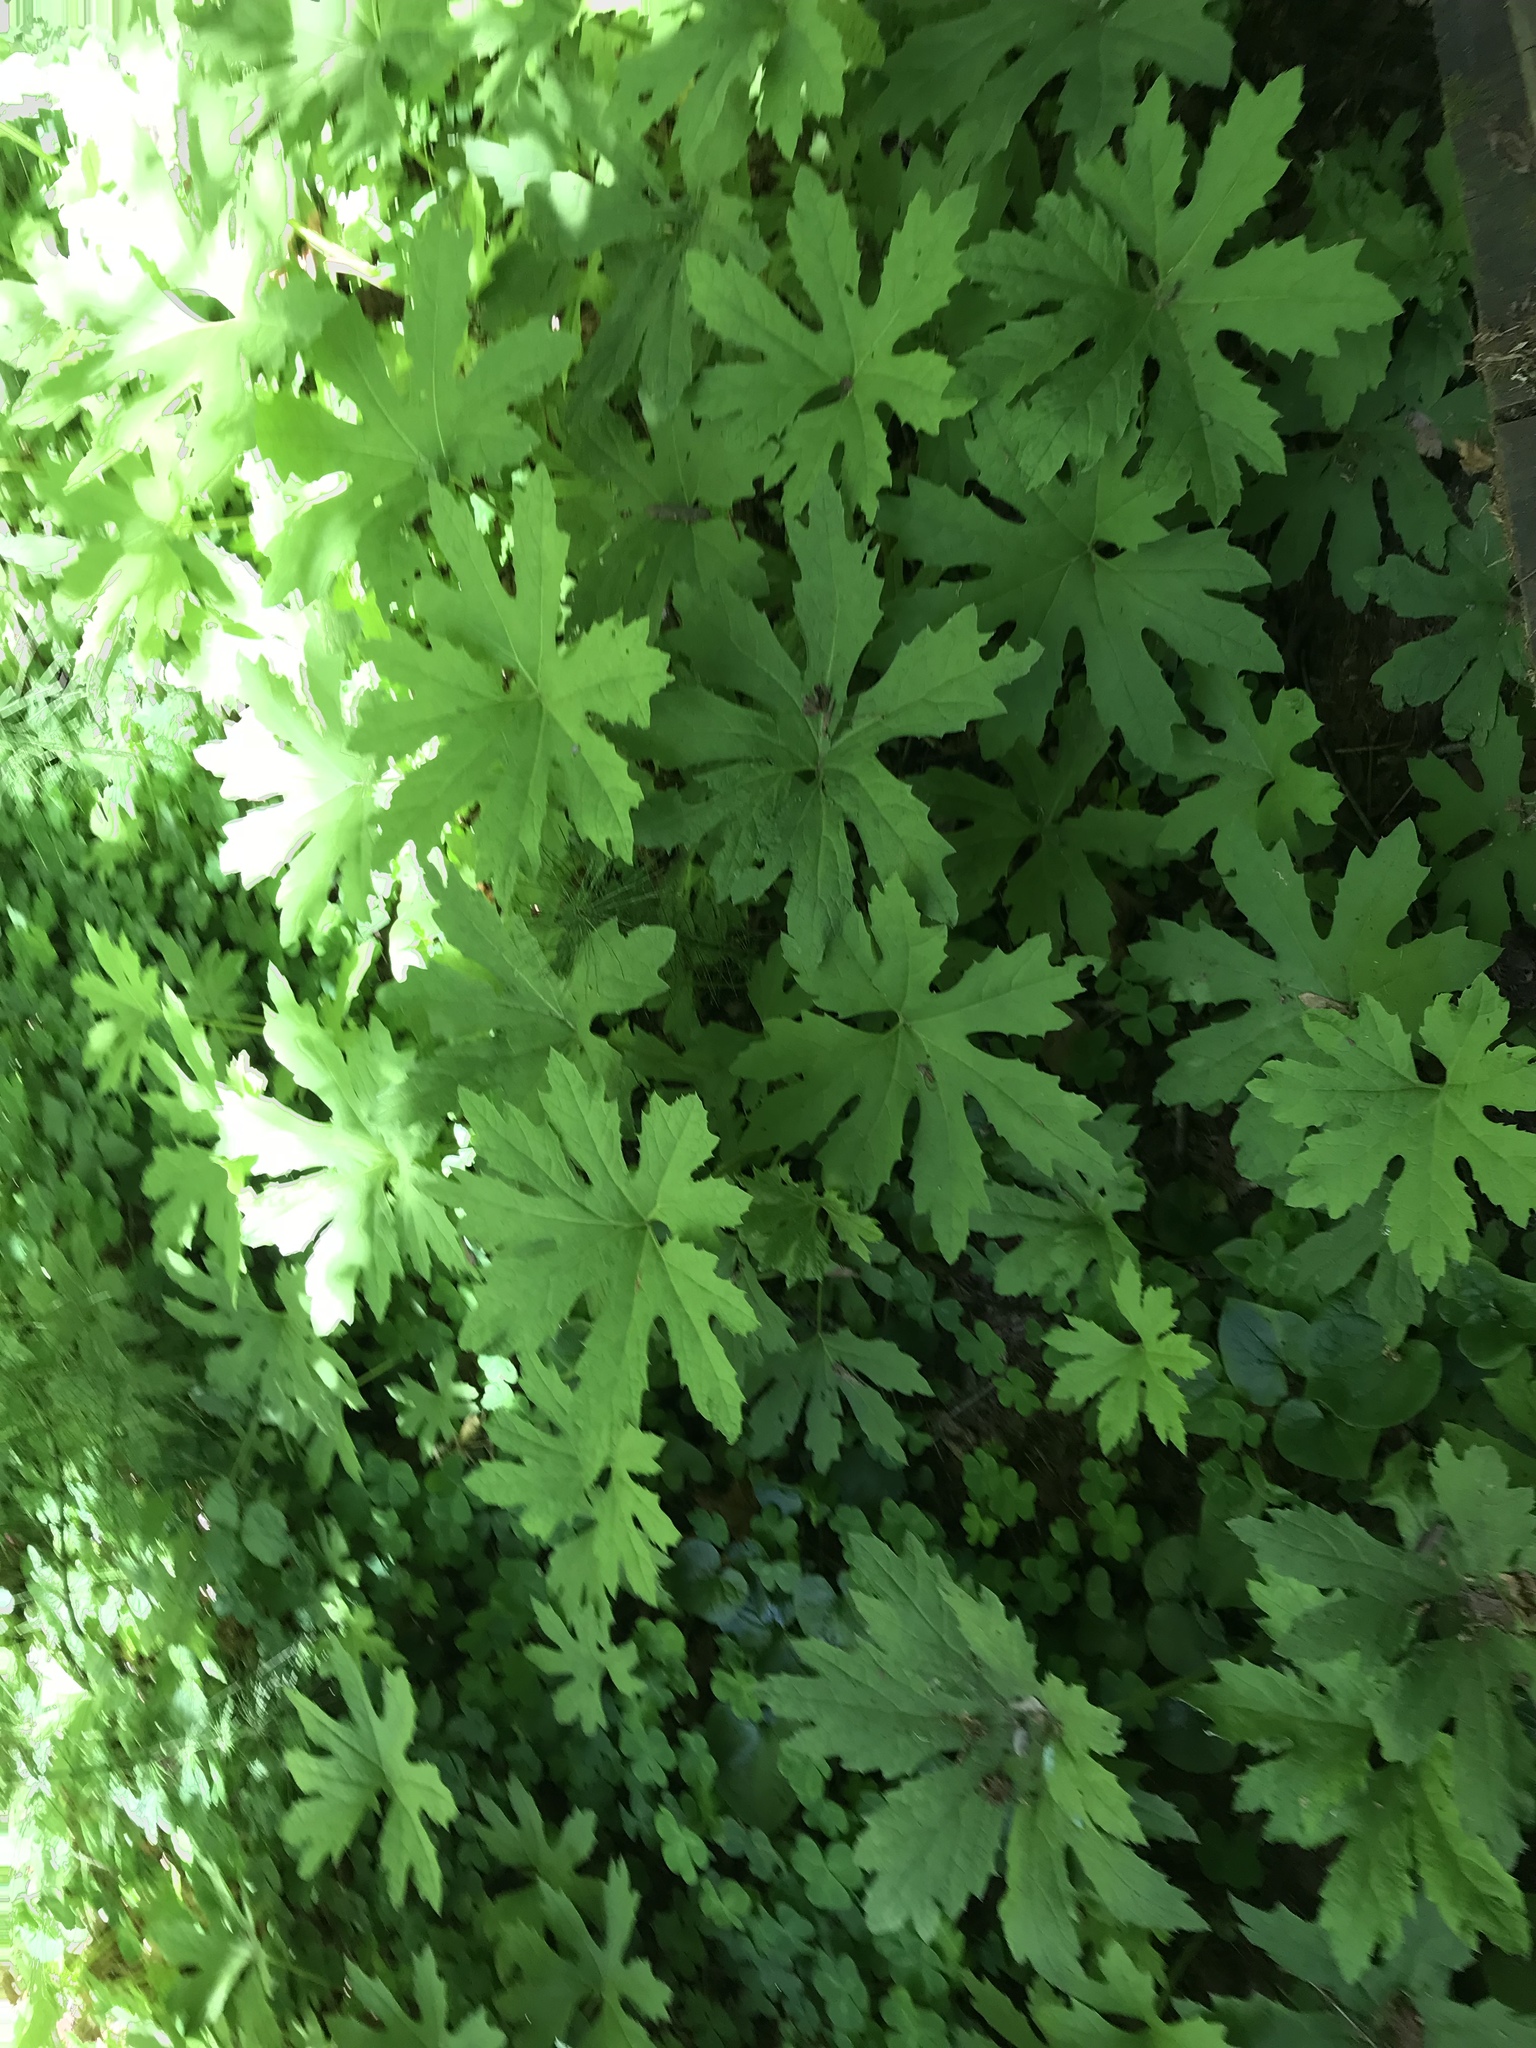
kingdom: Plantae
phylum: Tracheophyta
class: Magnoliopsida
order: Asterales
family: Asteraceae
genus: Petasites
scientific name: Petasites frigidus
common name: Arctic butterbur
